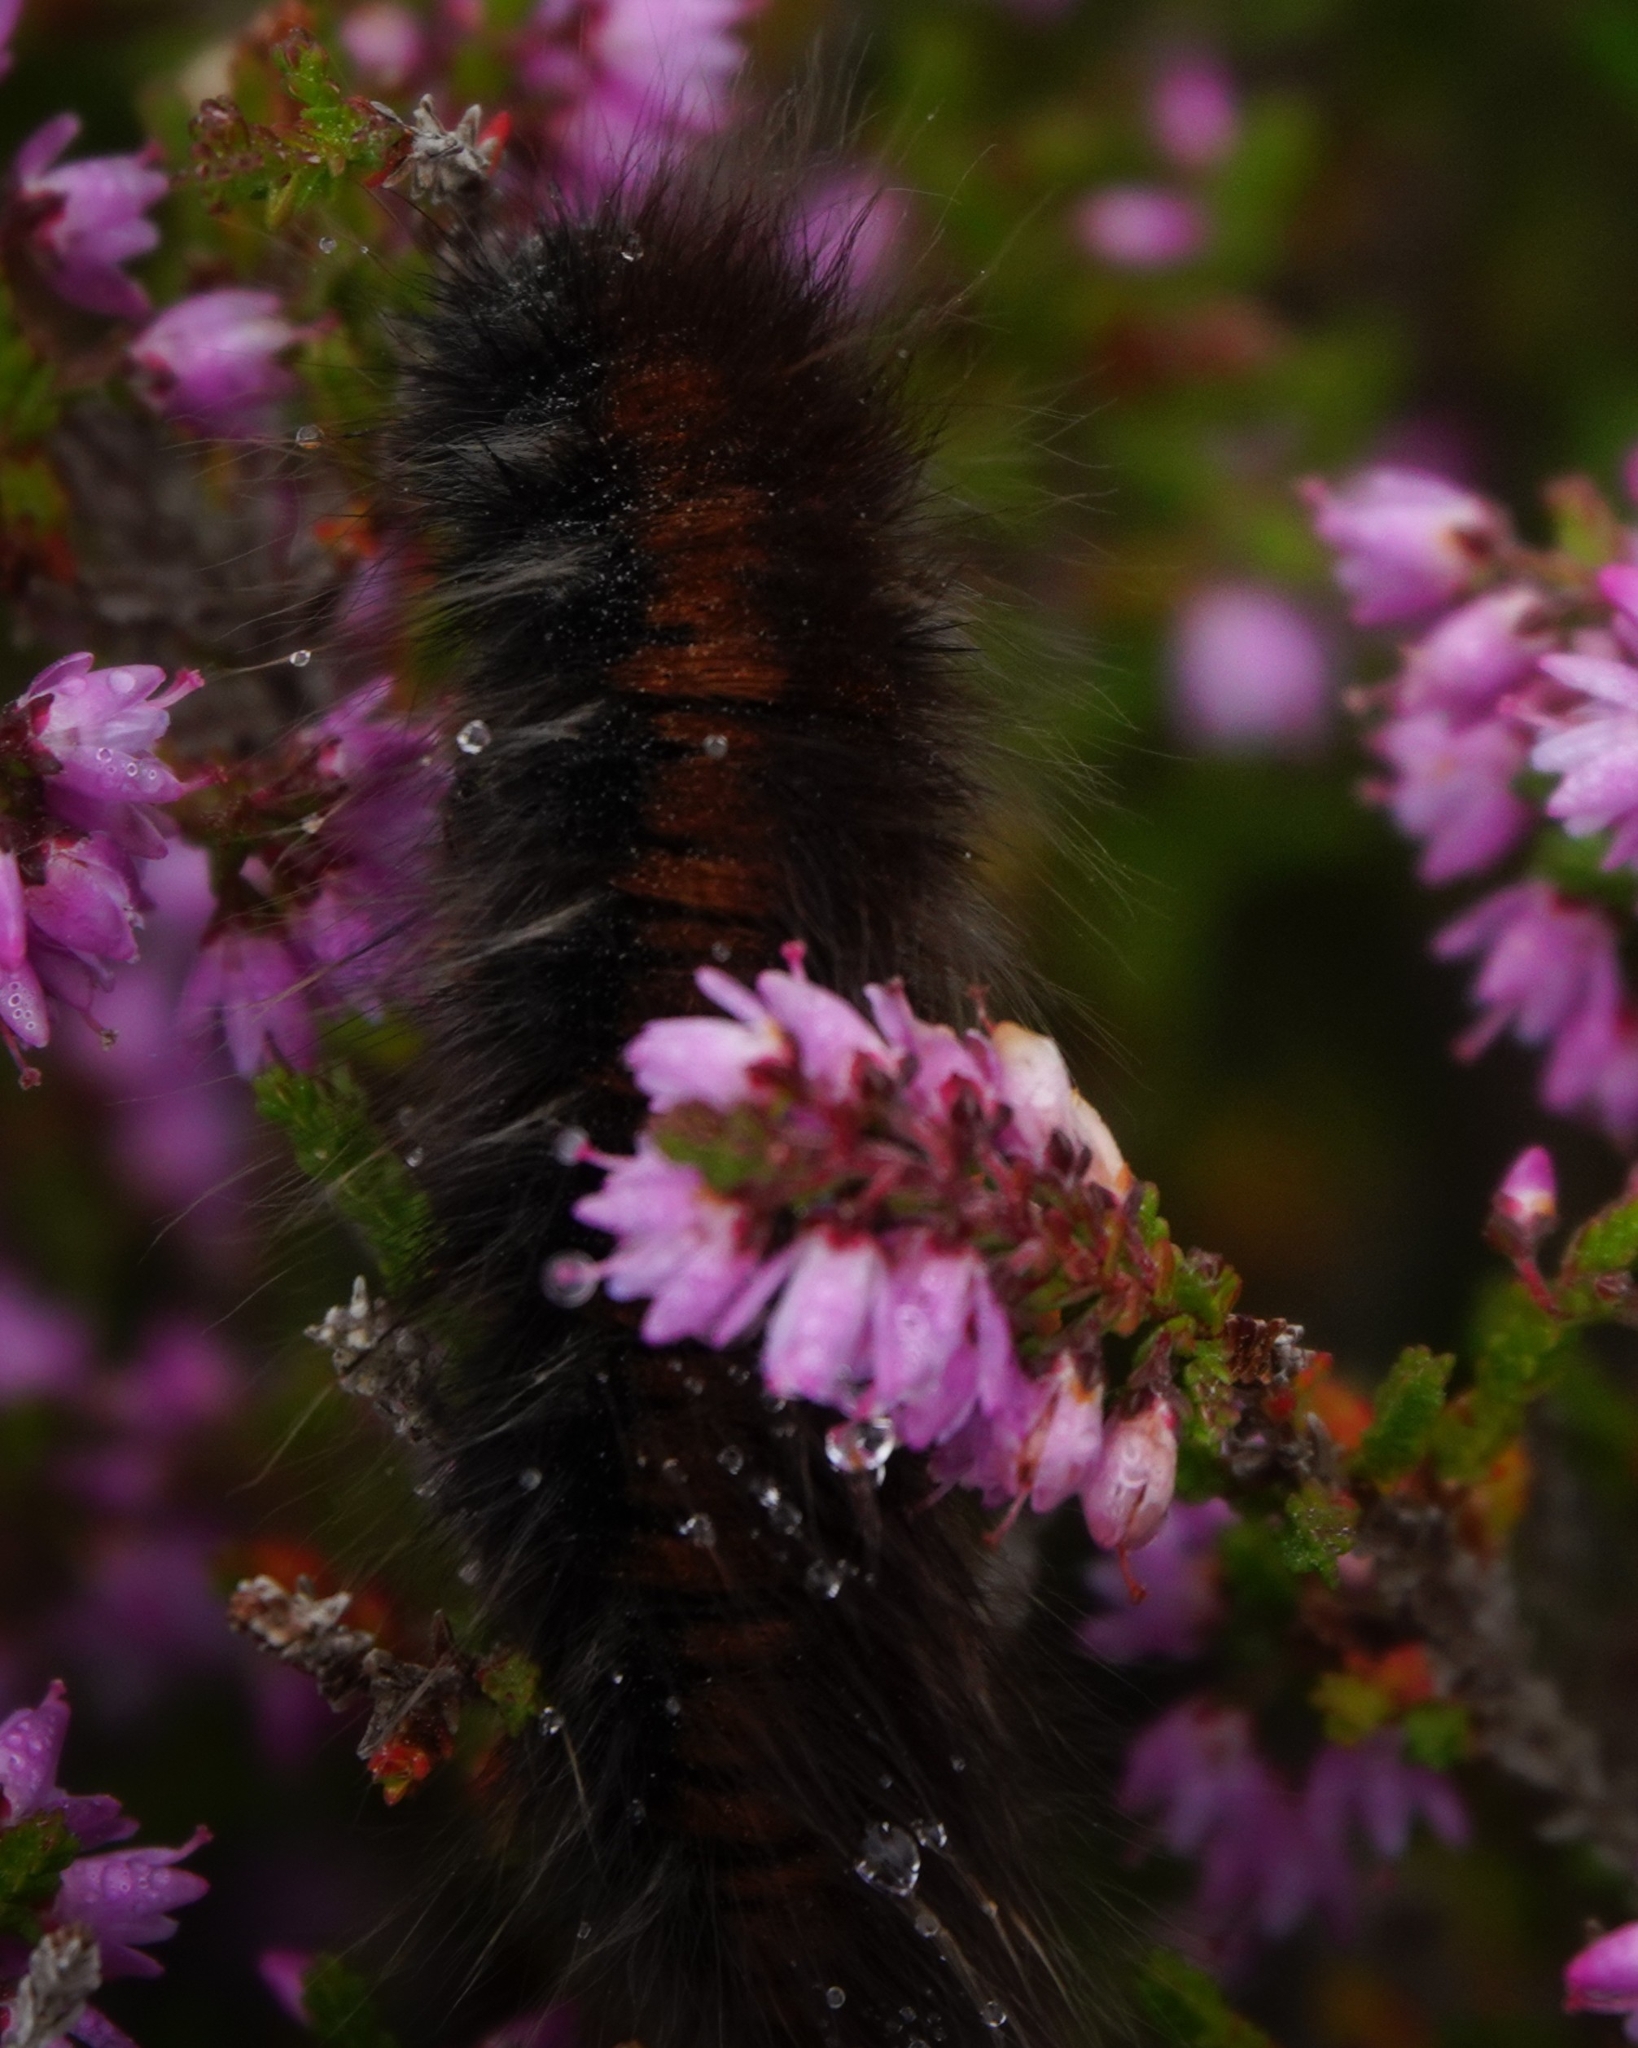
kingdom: Animalia
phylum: Arthropoda
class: Insecta
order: Lepidoptera
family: Lasiocampidae
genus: Macrothylacia
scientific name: Macrothylacia rubi
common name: Fox moth
